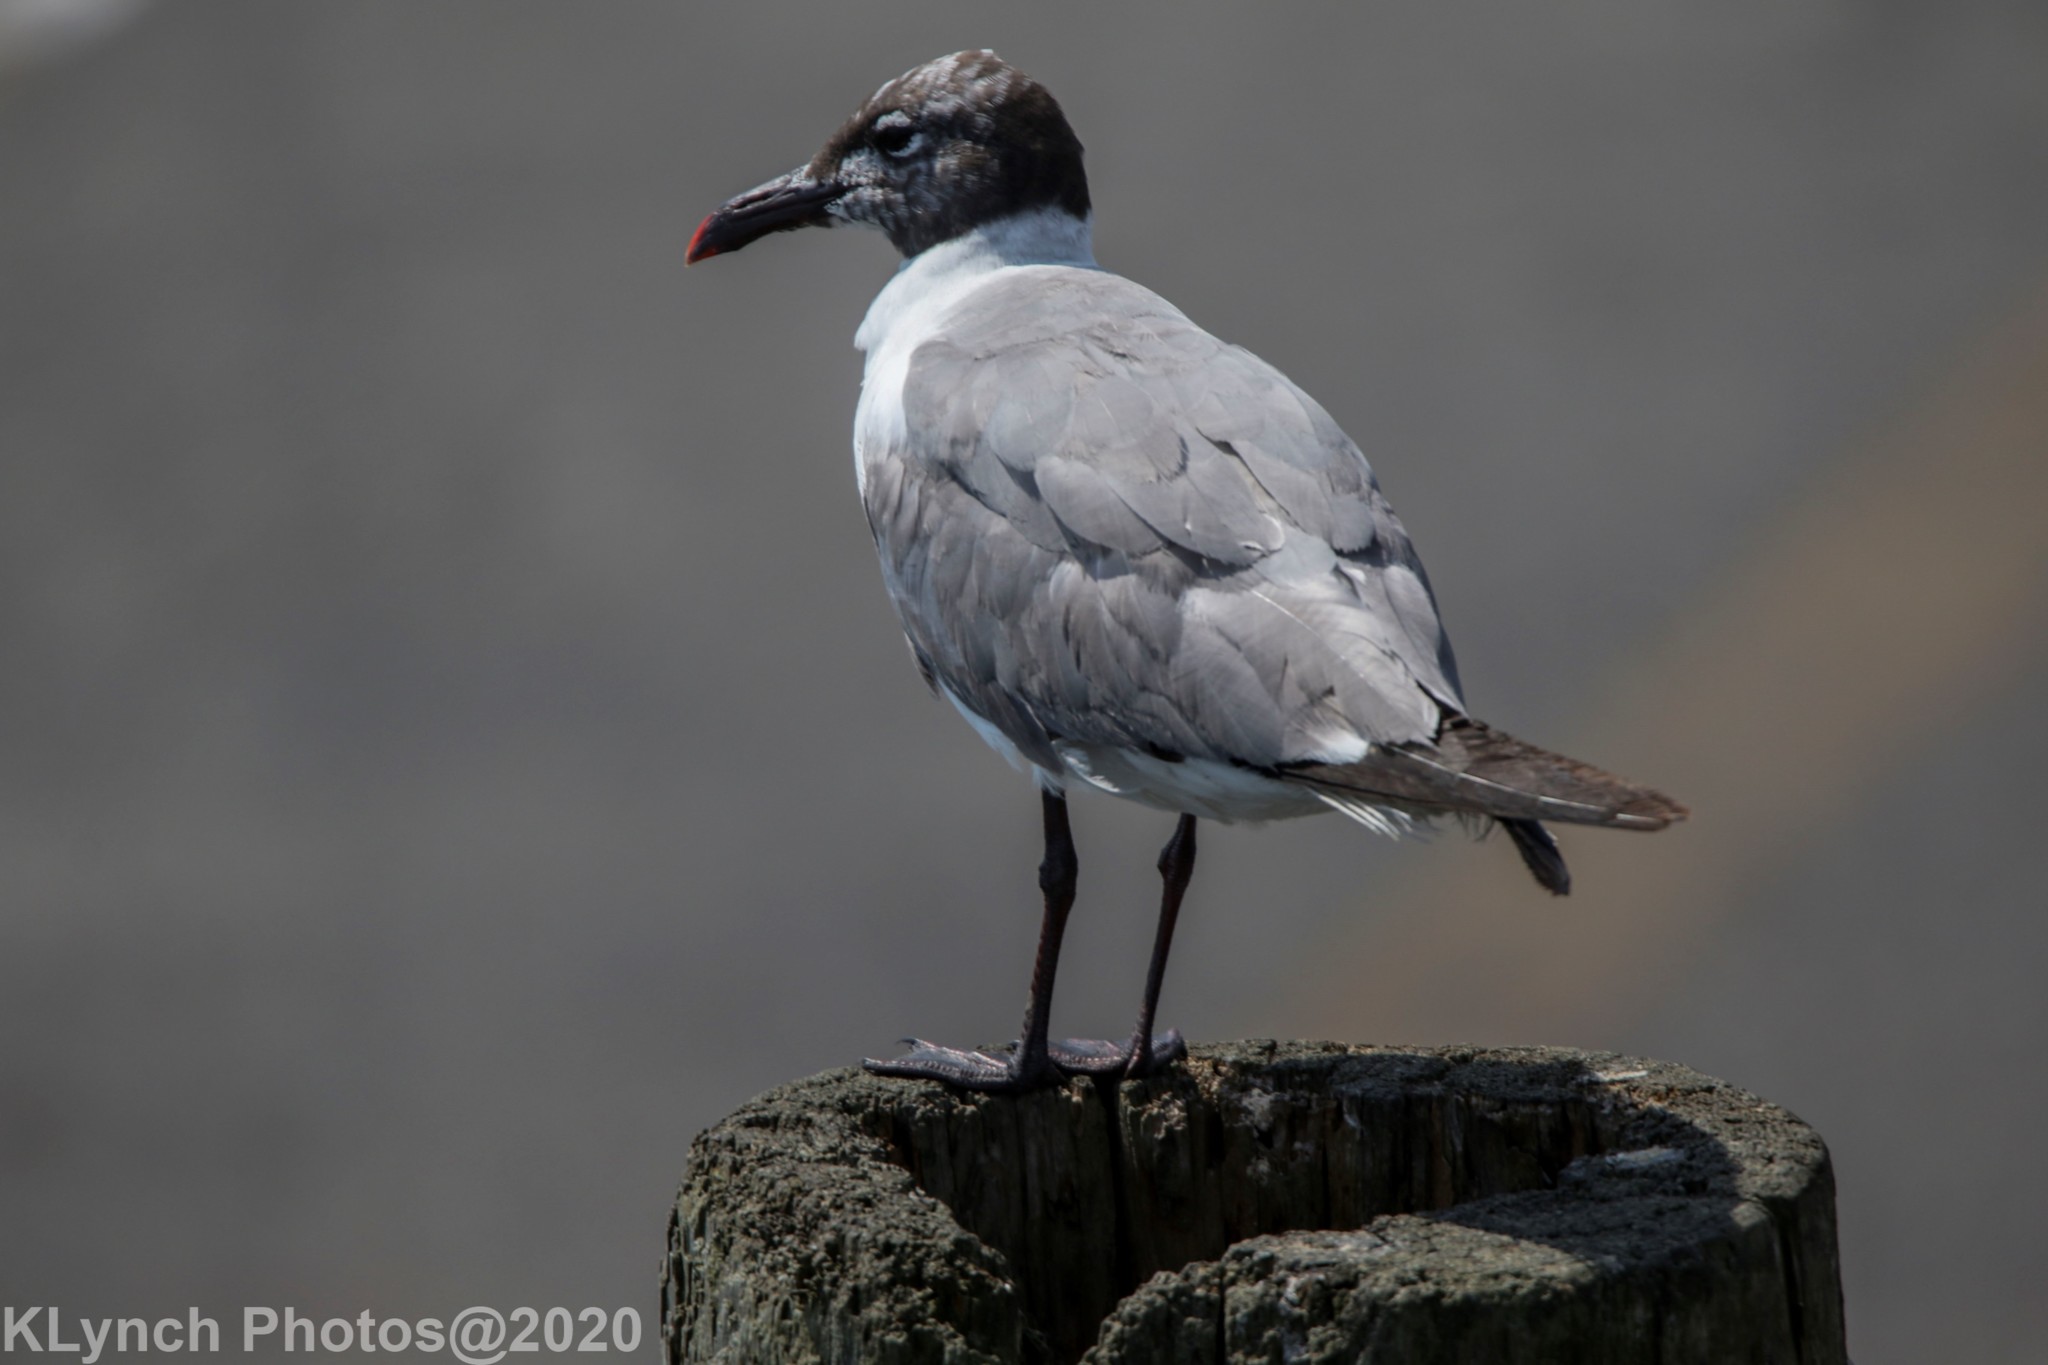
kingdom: Animalia
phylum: Chordata
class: Aves
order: Charadriiformes
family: Laridae
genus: Leucophaeus
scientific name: Leucophaeus atricilla
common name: Laughing gull
